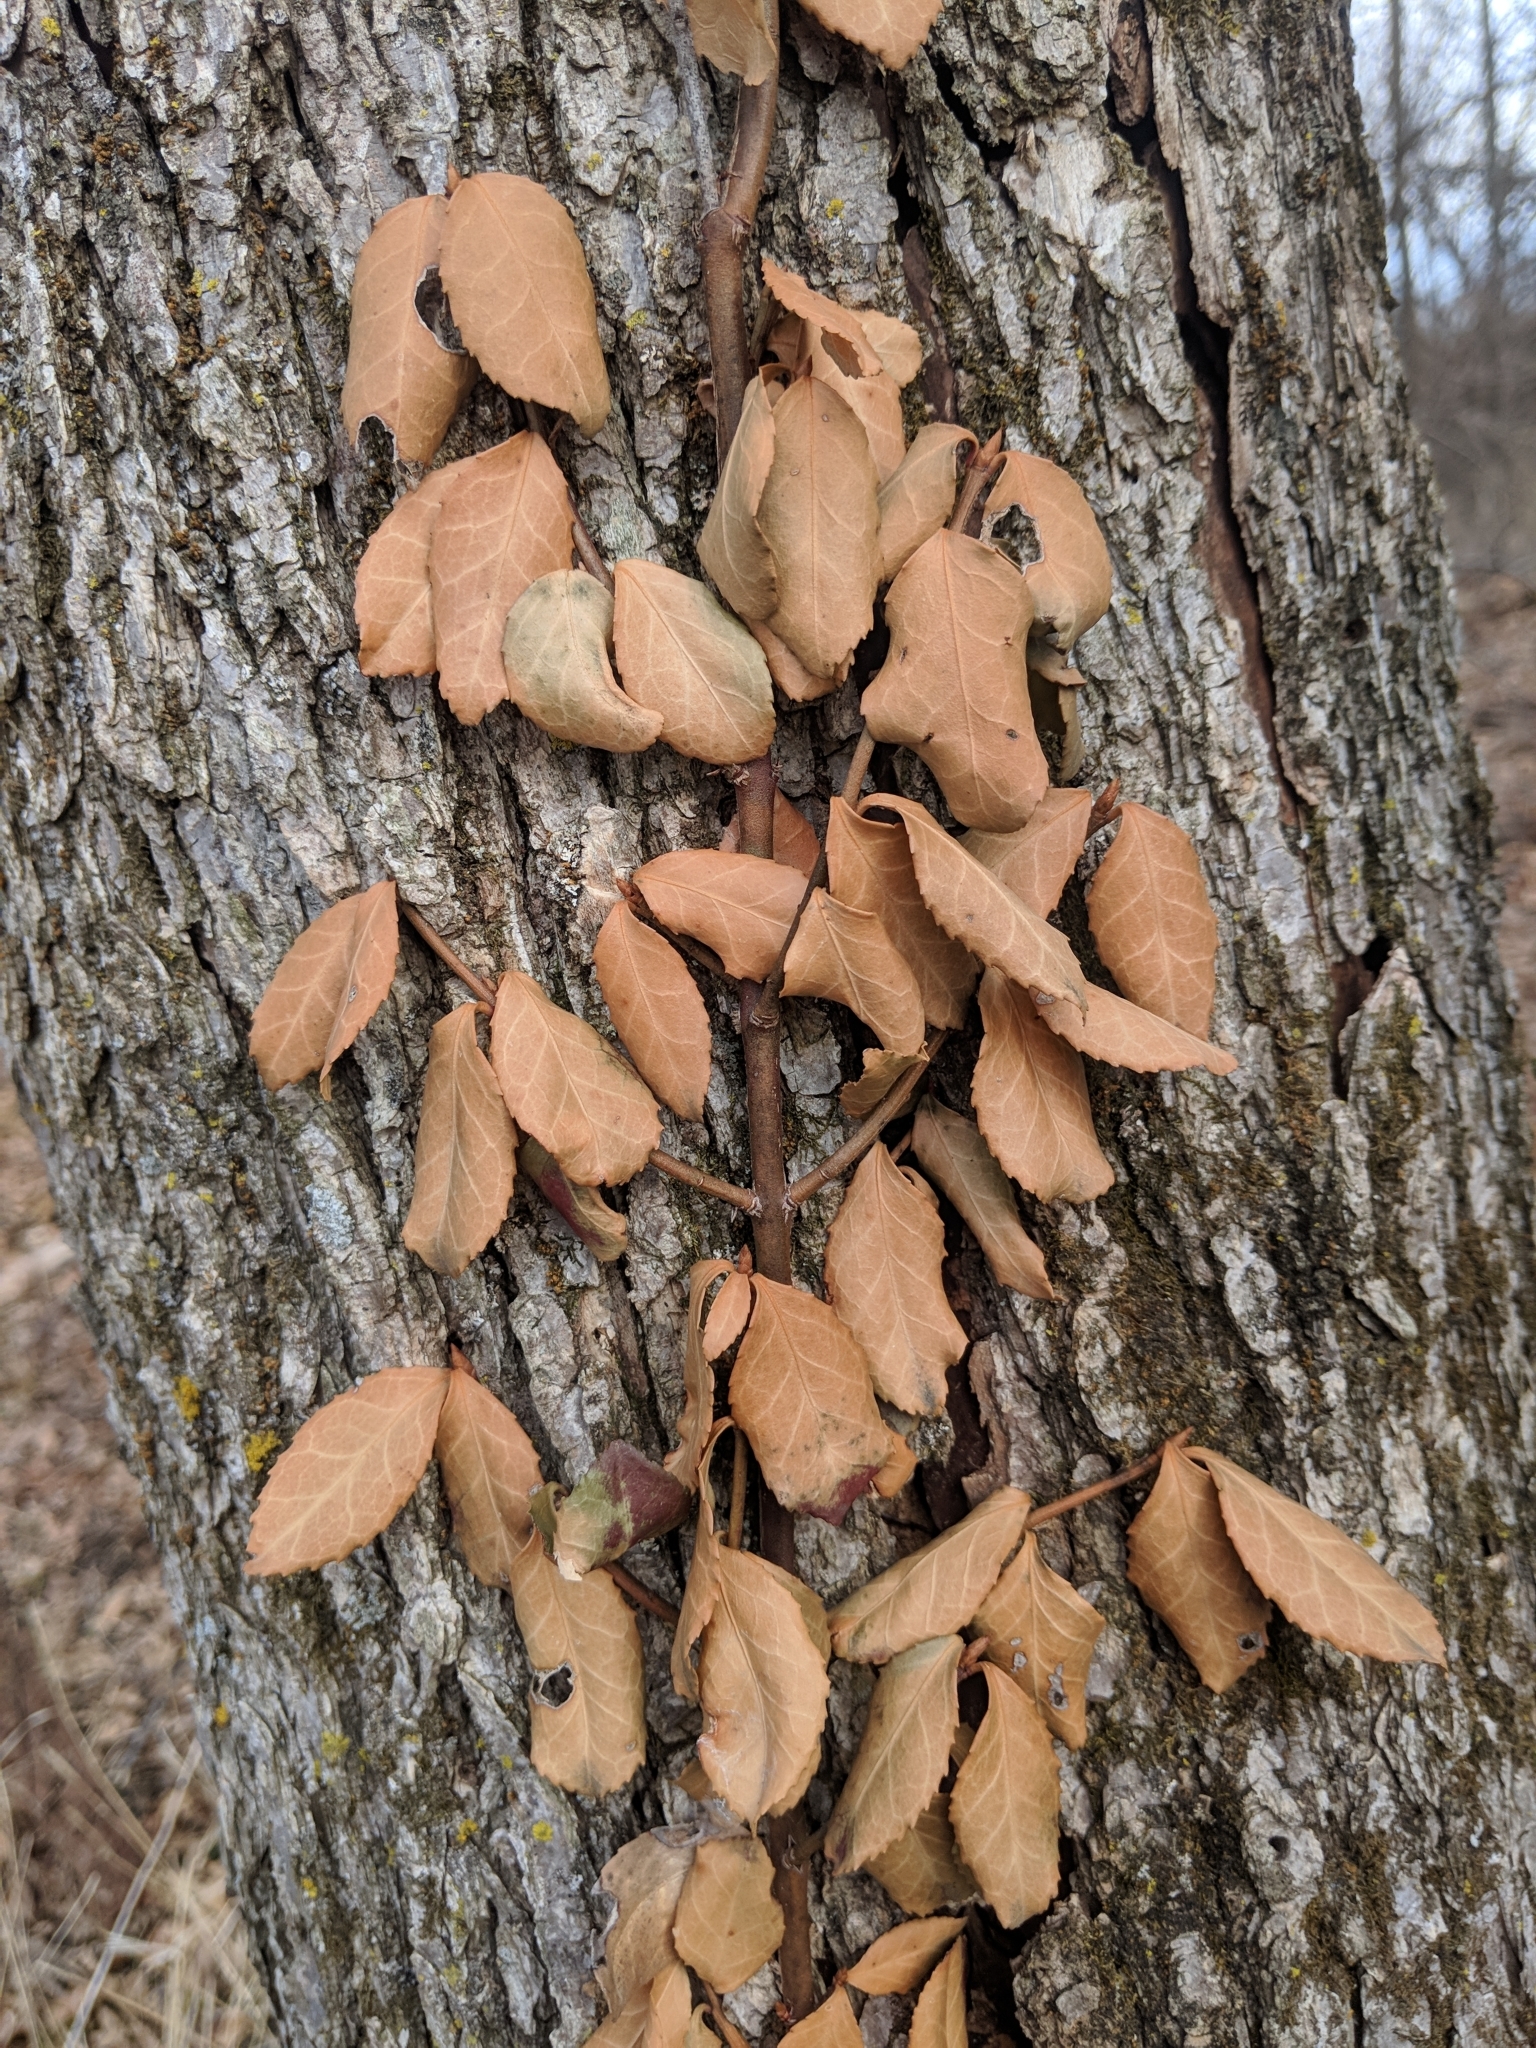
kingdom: Plantae
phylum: Tracheophyta
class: Magnoliopsida
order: Celastrales
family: Celastraceae
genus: Euonymus
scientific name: Euonymus fortunei
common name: Climbing euonymus
